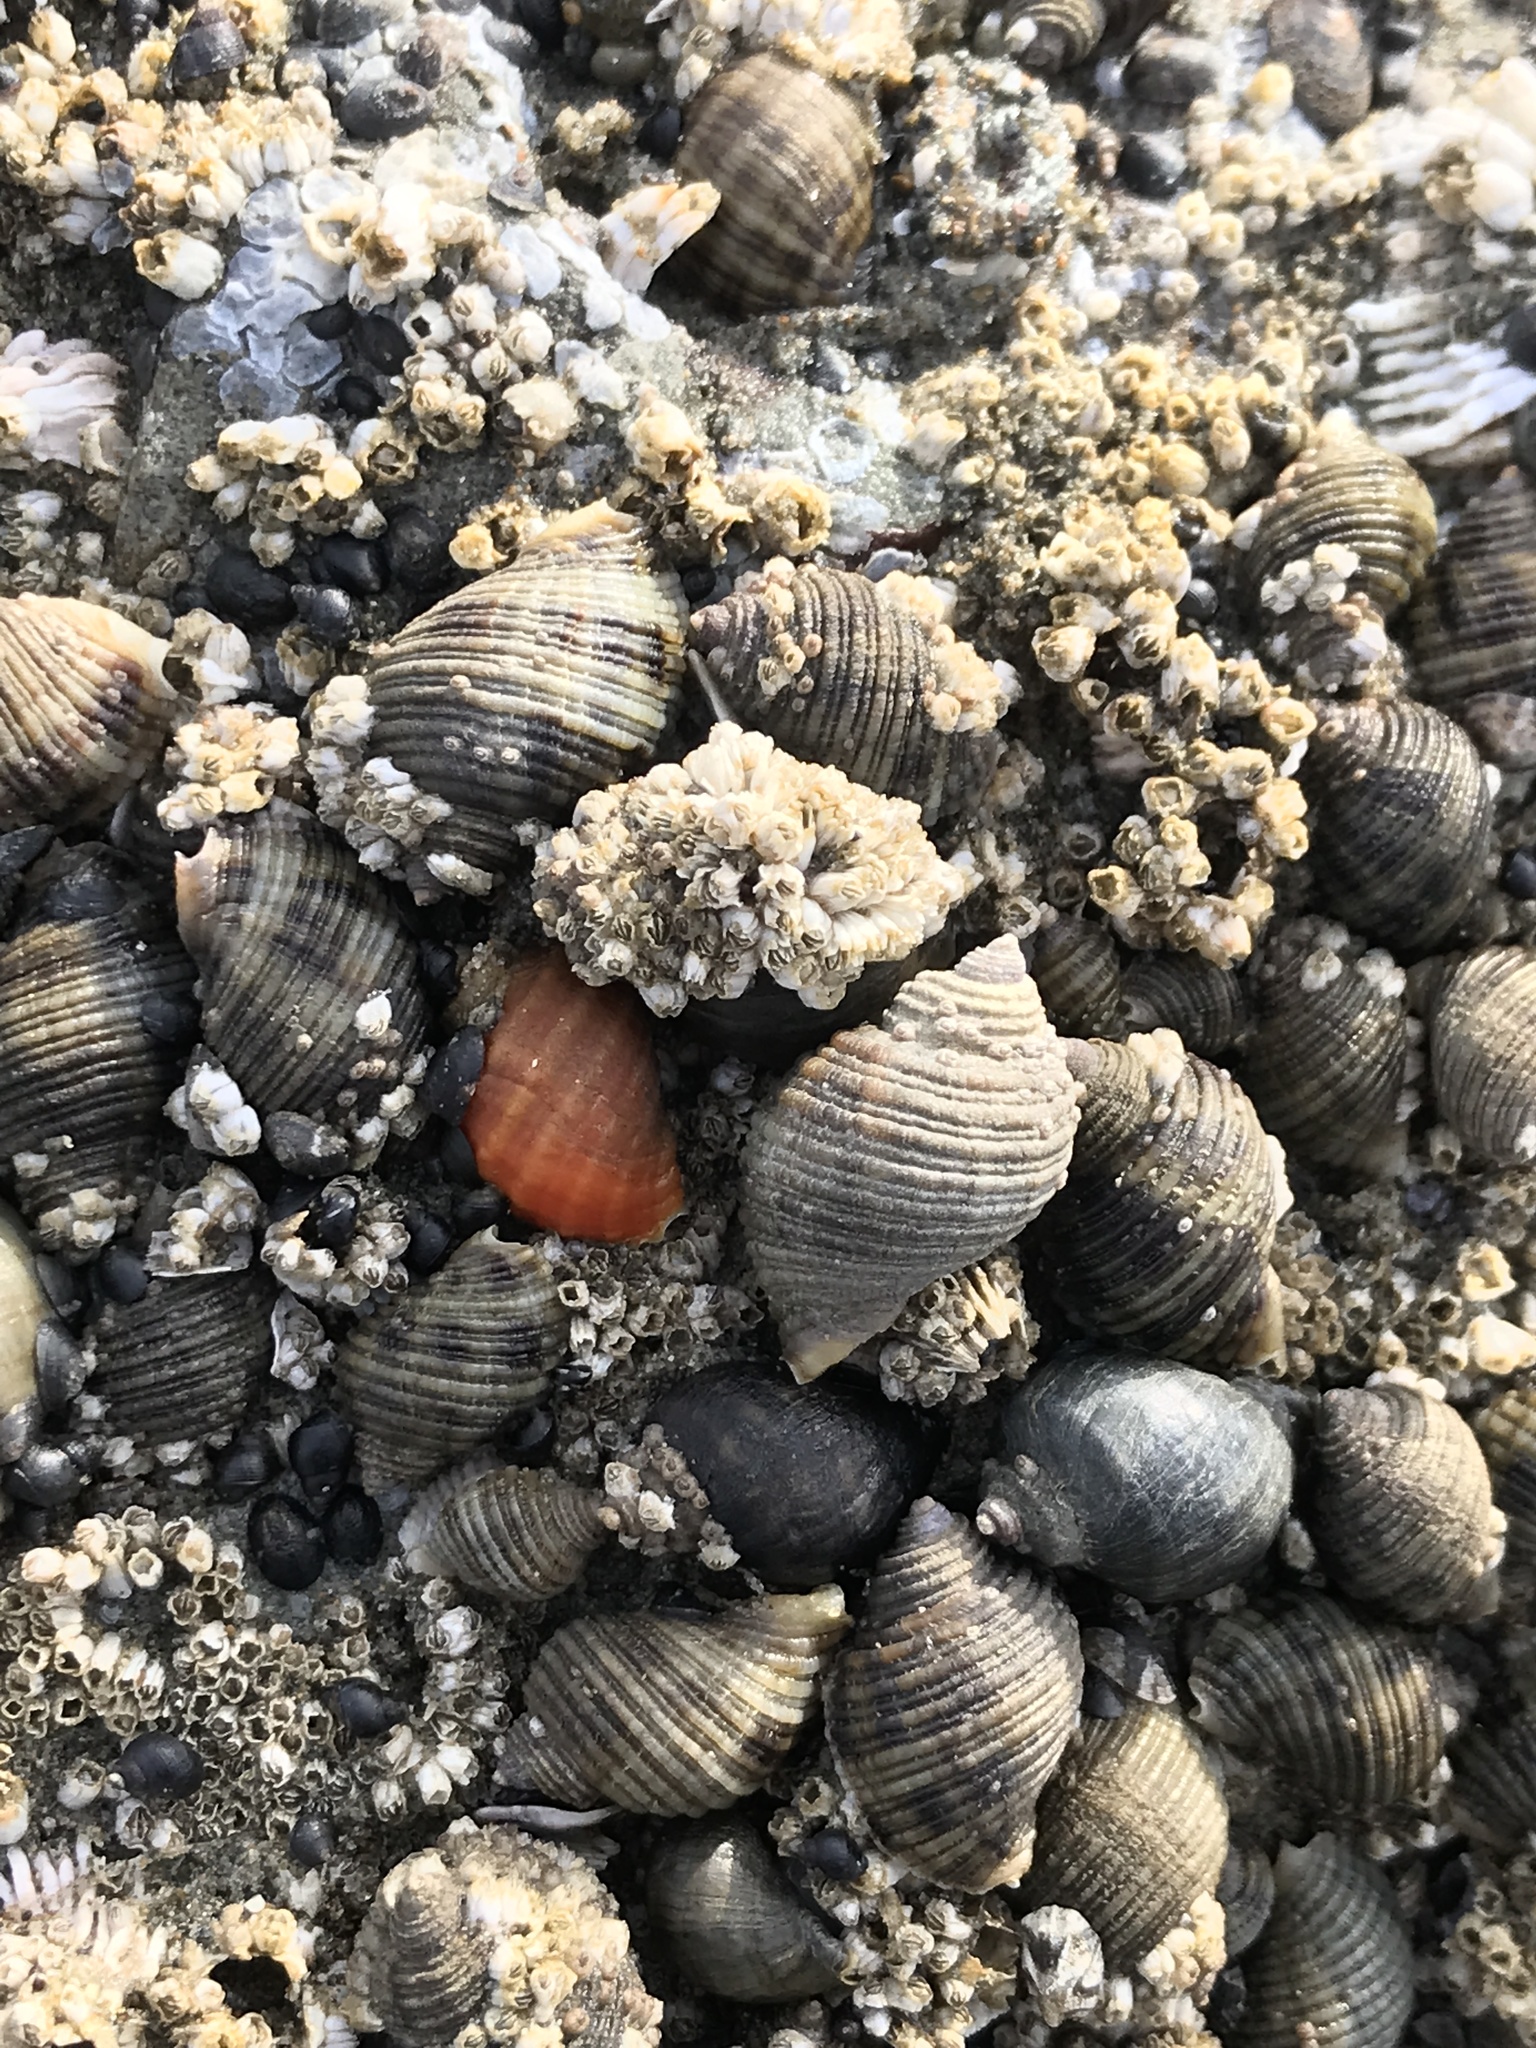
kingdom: Animalia
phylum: Mollusca
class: Gastropoda
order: Neogastropoda
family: Muricidae
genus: Nucella
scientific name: Nucella ostrina
